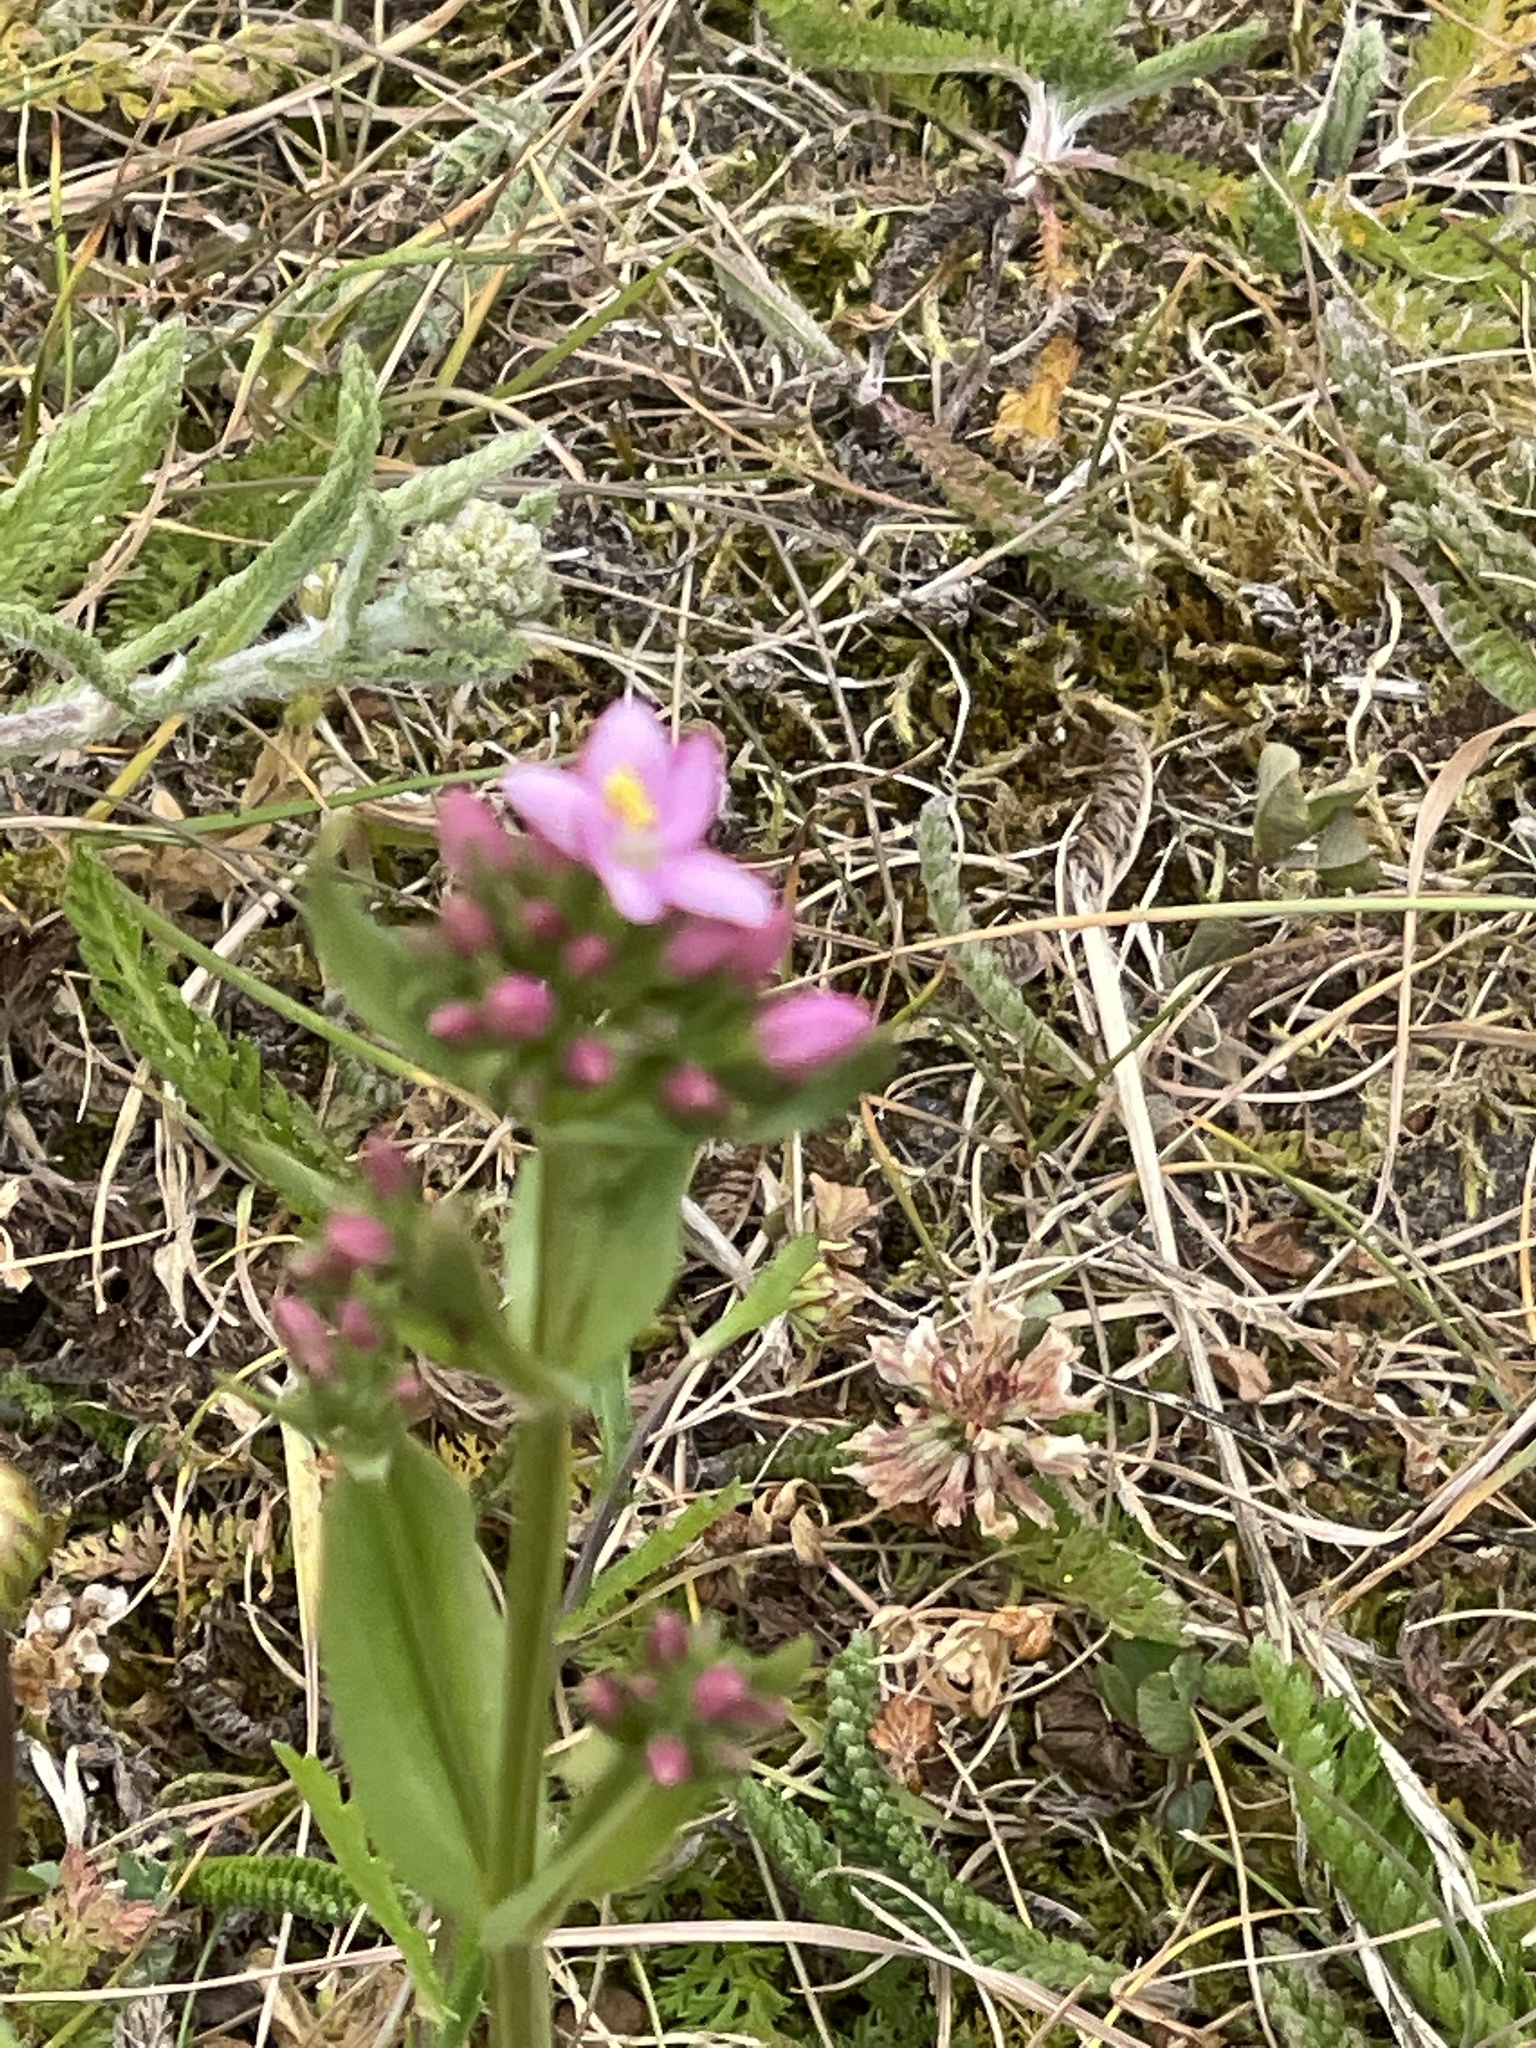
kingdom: Plantae
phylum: Tracheophyta
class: Magnoliopsida
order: Gentianales
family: Gentianaceae
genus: Centaurium
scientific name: Centaurium erythraea
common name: Common centaury
